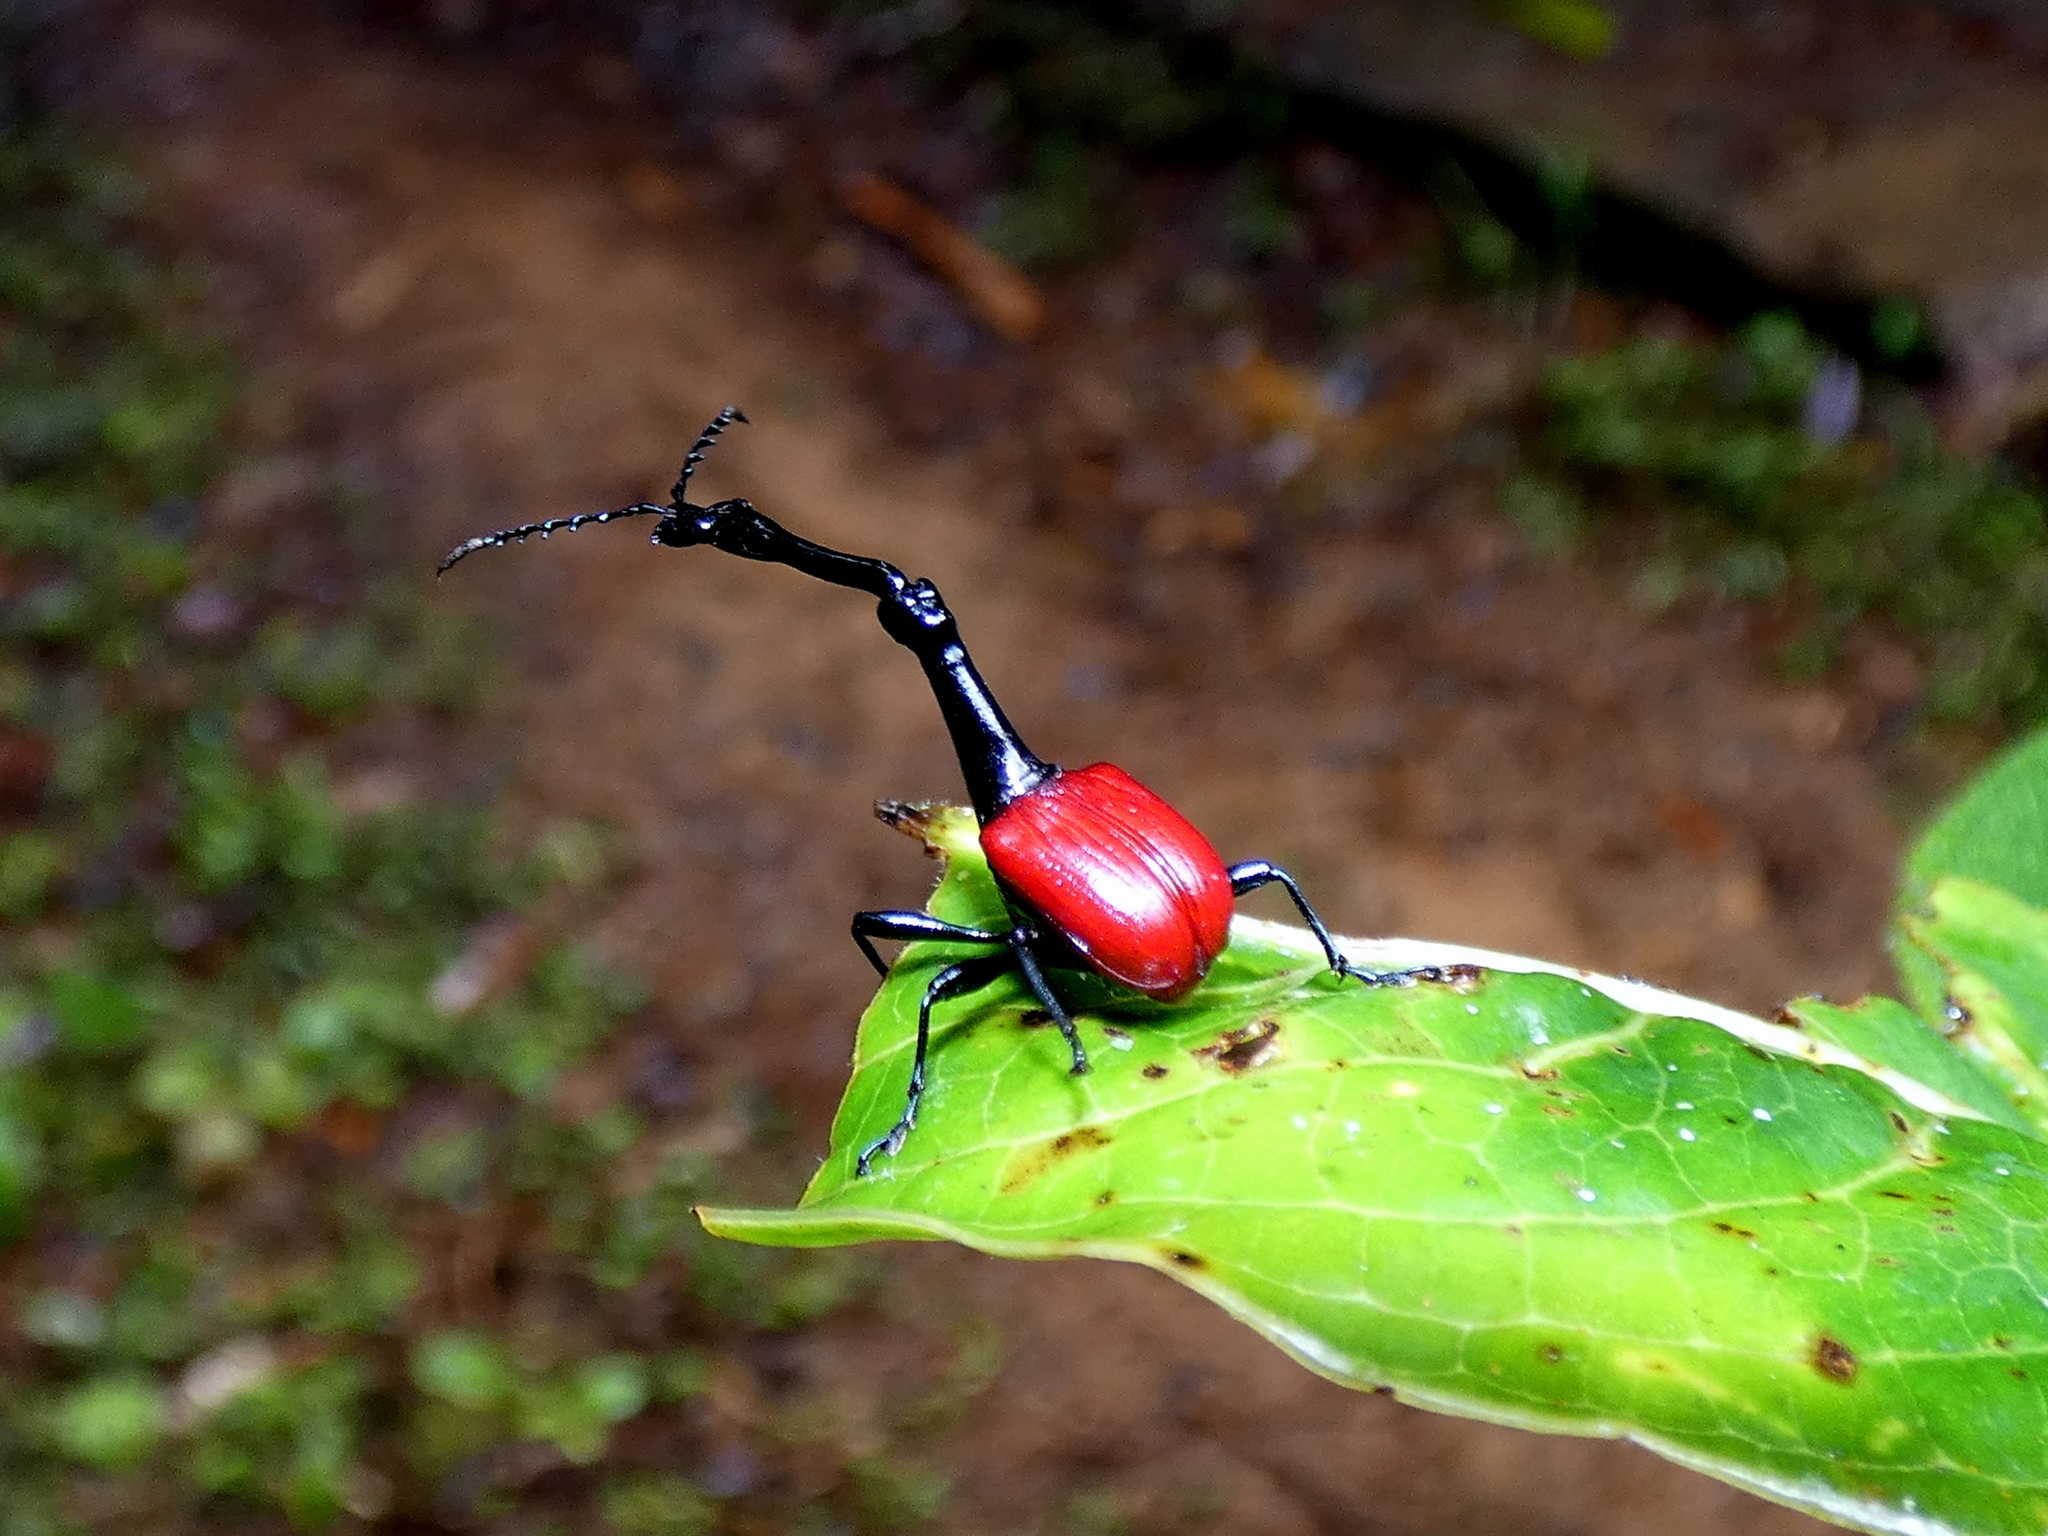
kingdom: Animalia
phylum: Arthropoda
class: Insecta
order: Coleoptera
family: Attelabidae
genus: Trachelophorus
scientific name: Trachelophorus giraffa
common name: Giraffe weevil
